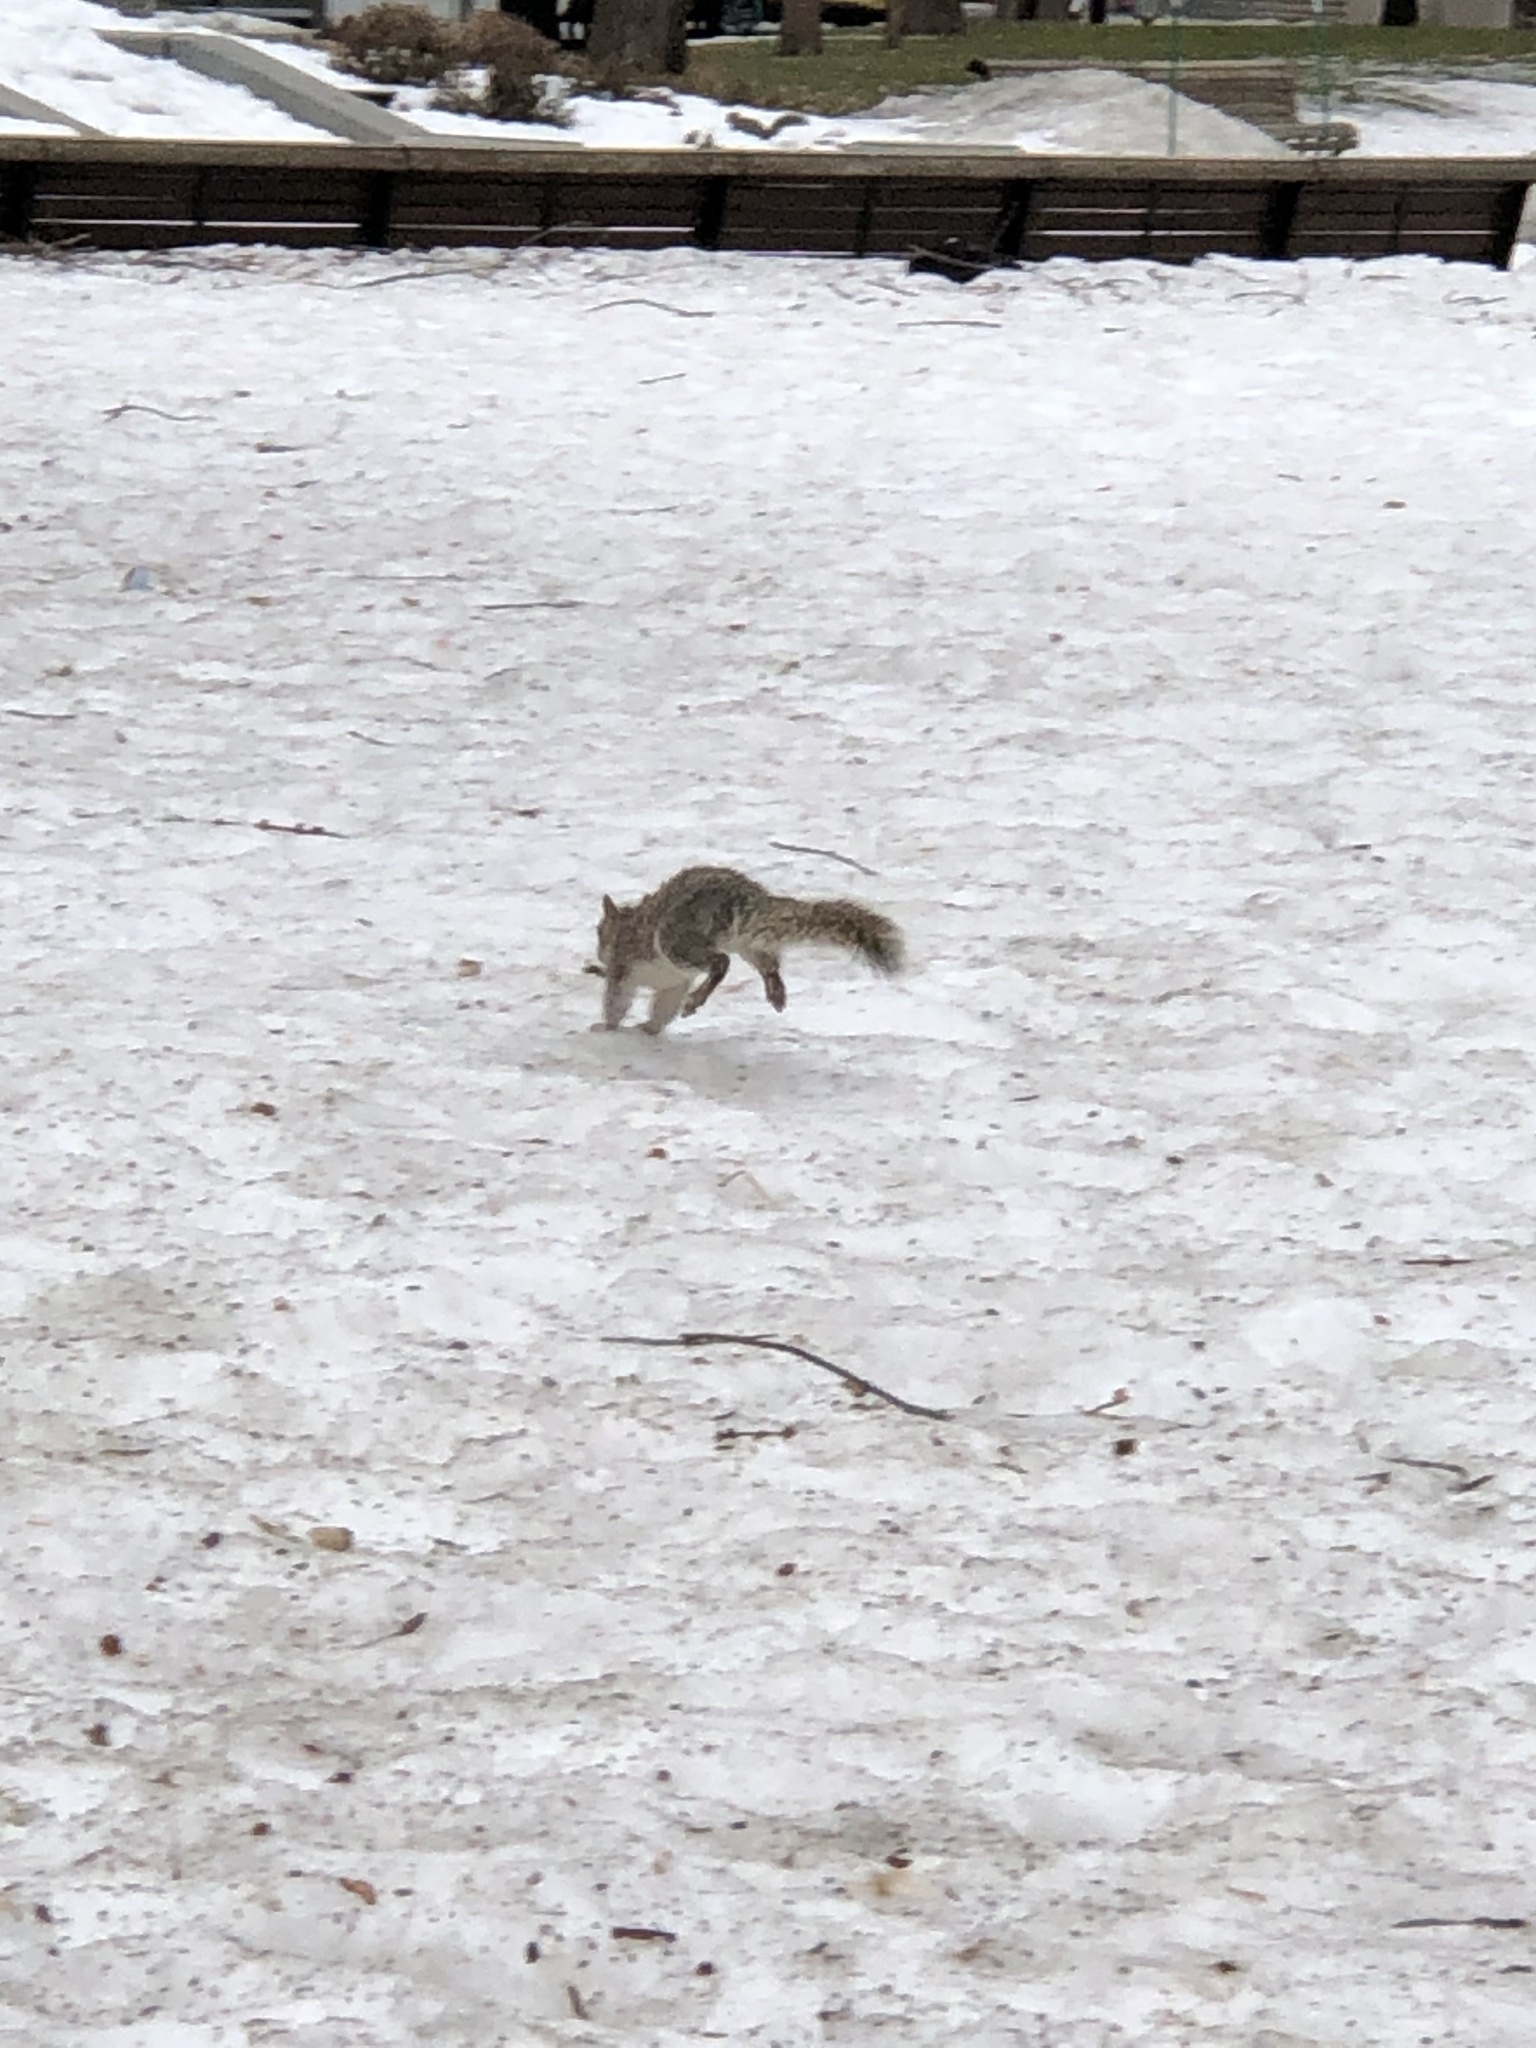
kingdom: Animalia
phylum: Chordata
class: Mammalia
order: Rodentia
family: Sciuridae
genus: Sciurus
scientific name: Sciurus carolinensis
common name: Eastern gray squirrel
